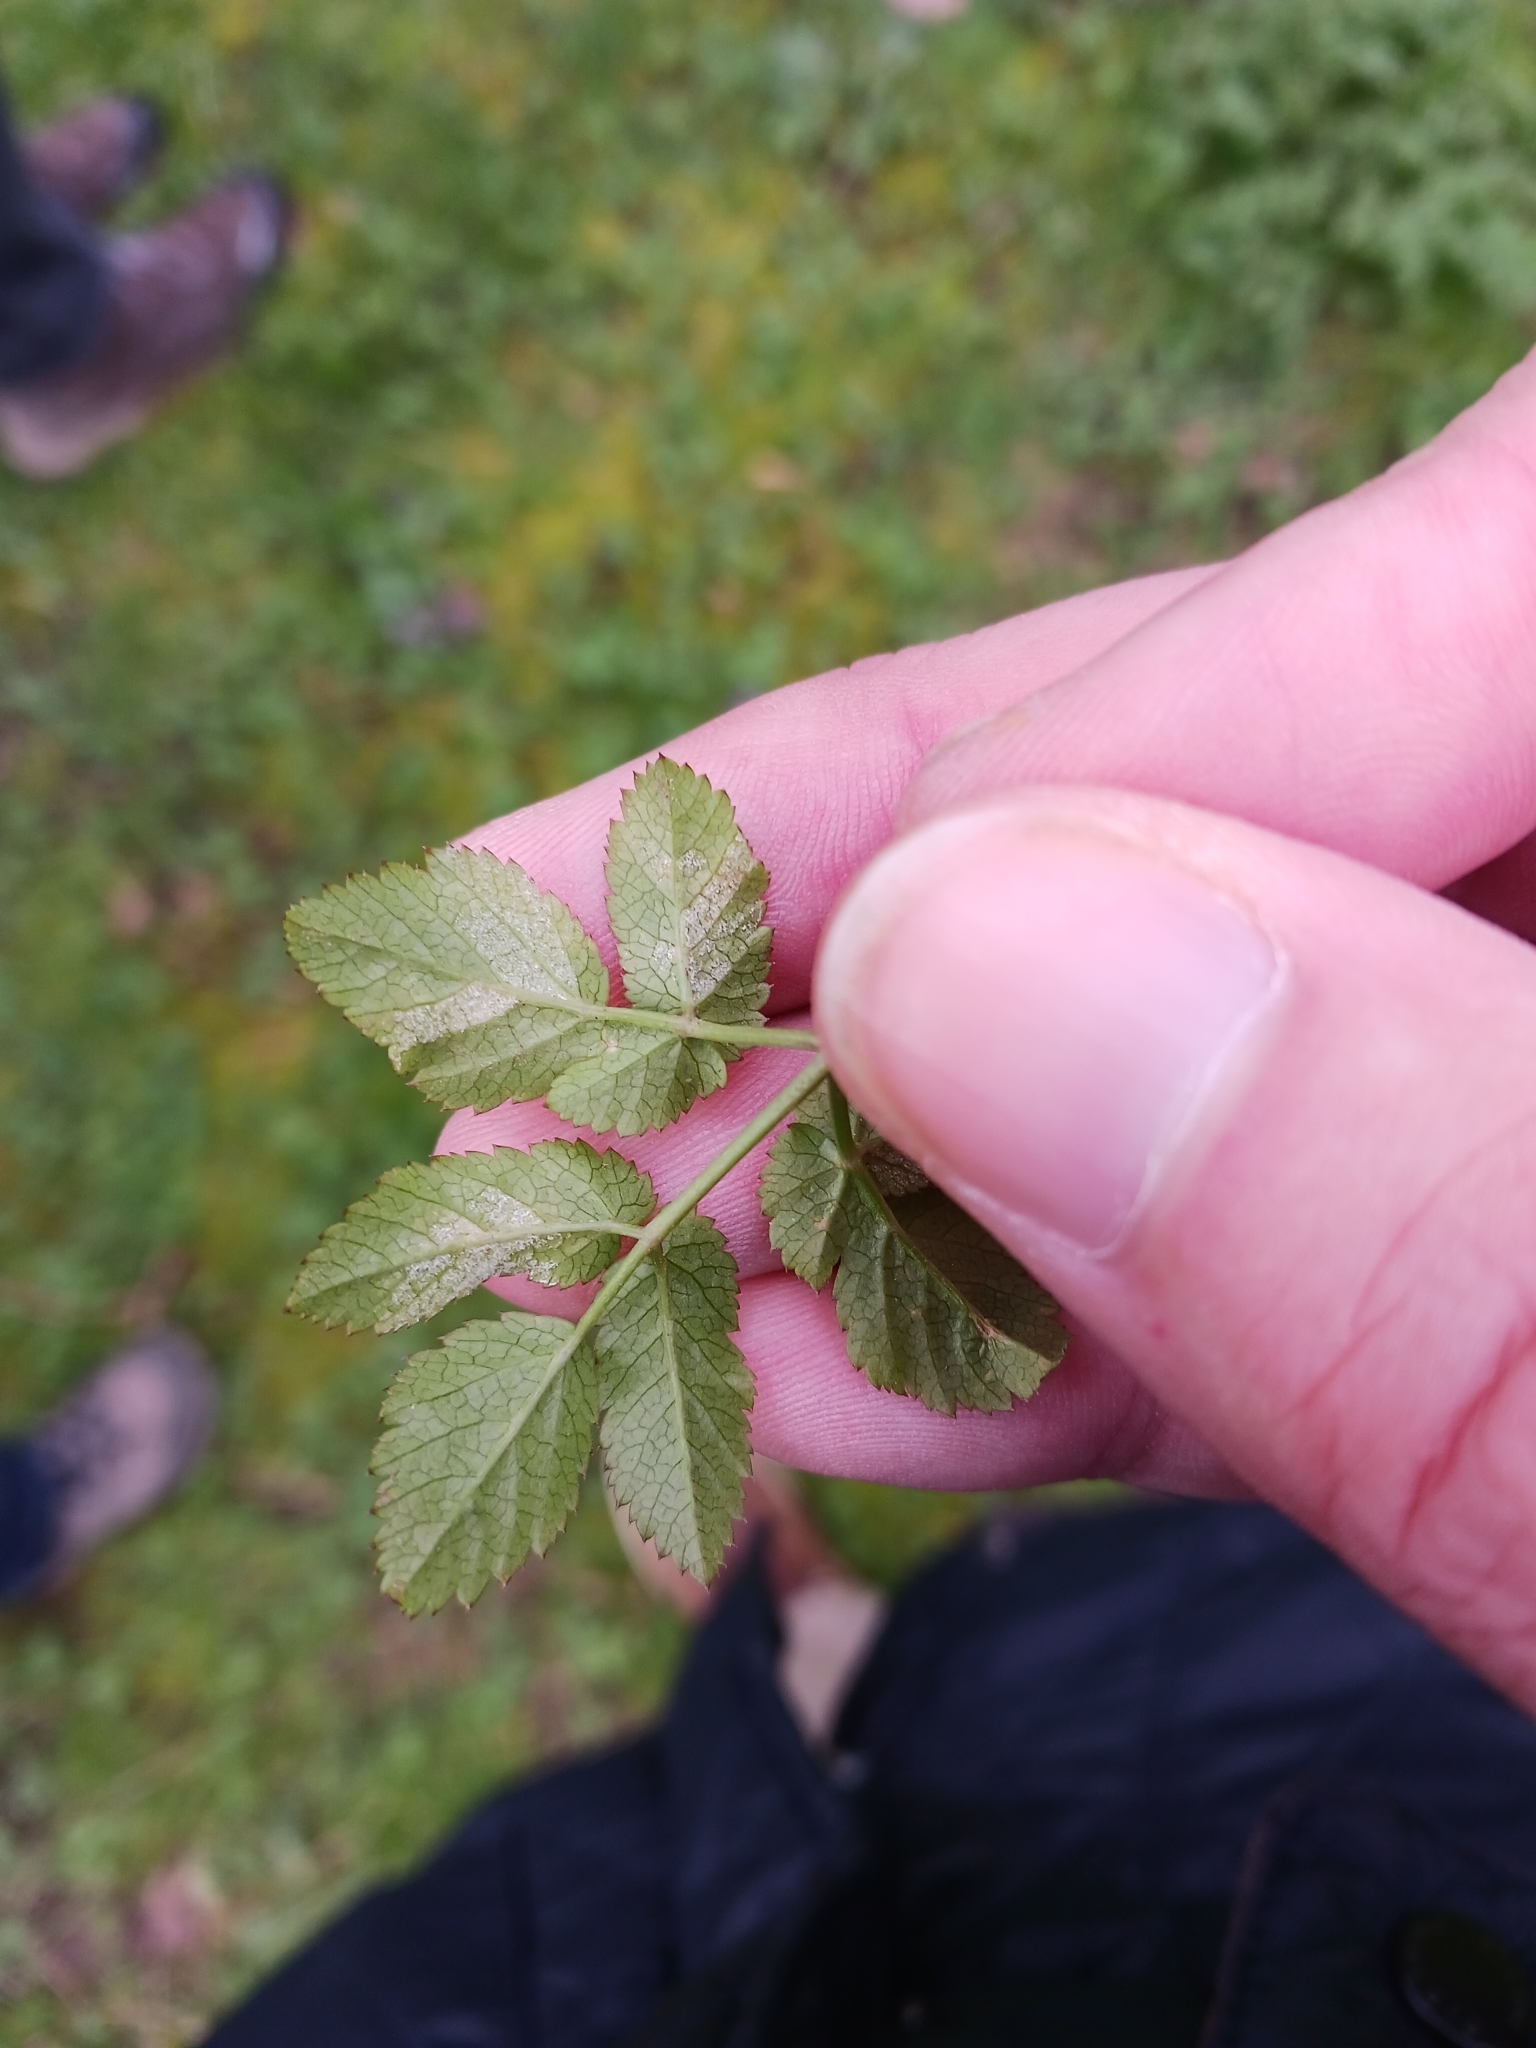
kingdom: Chromista
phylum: Oomycota
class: Peronosporea
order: Peronosporales
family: Peronosporaceae
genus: Peronospora
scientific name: Peronospora crustosa
